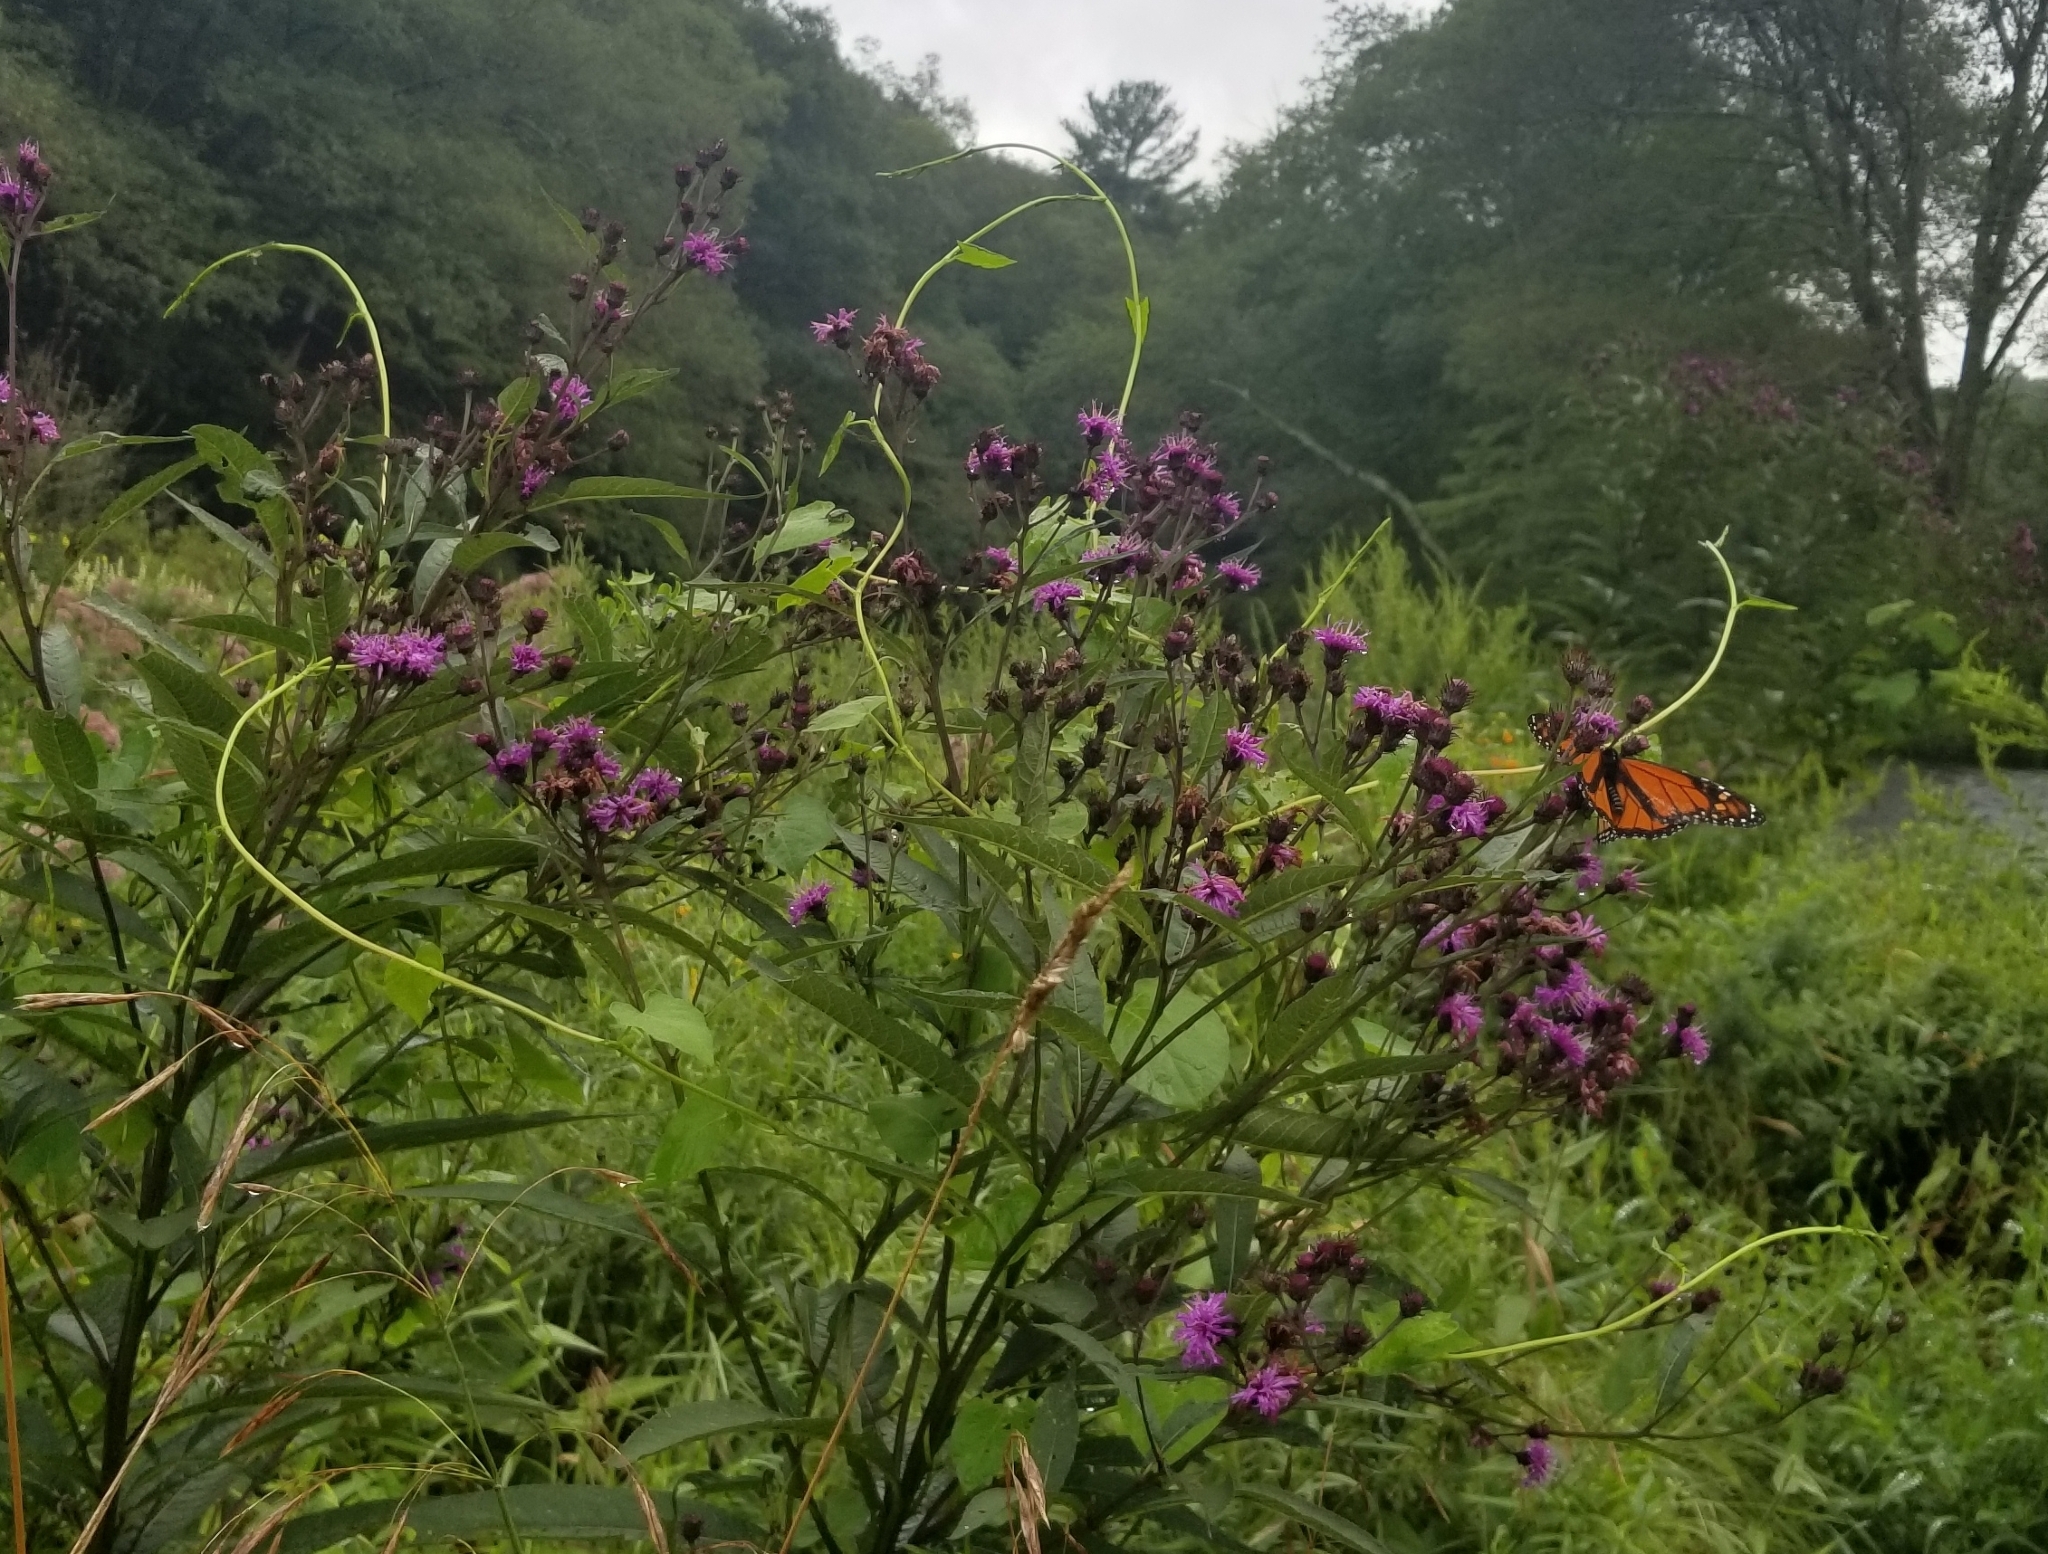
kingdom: Plantae
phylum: Tracheophyta
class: Magnoliopsida
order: Asterales
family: Asteraceae
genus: Vernonia
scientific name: Vernonia noveboracensis
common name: New york ironweed
